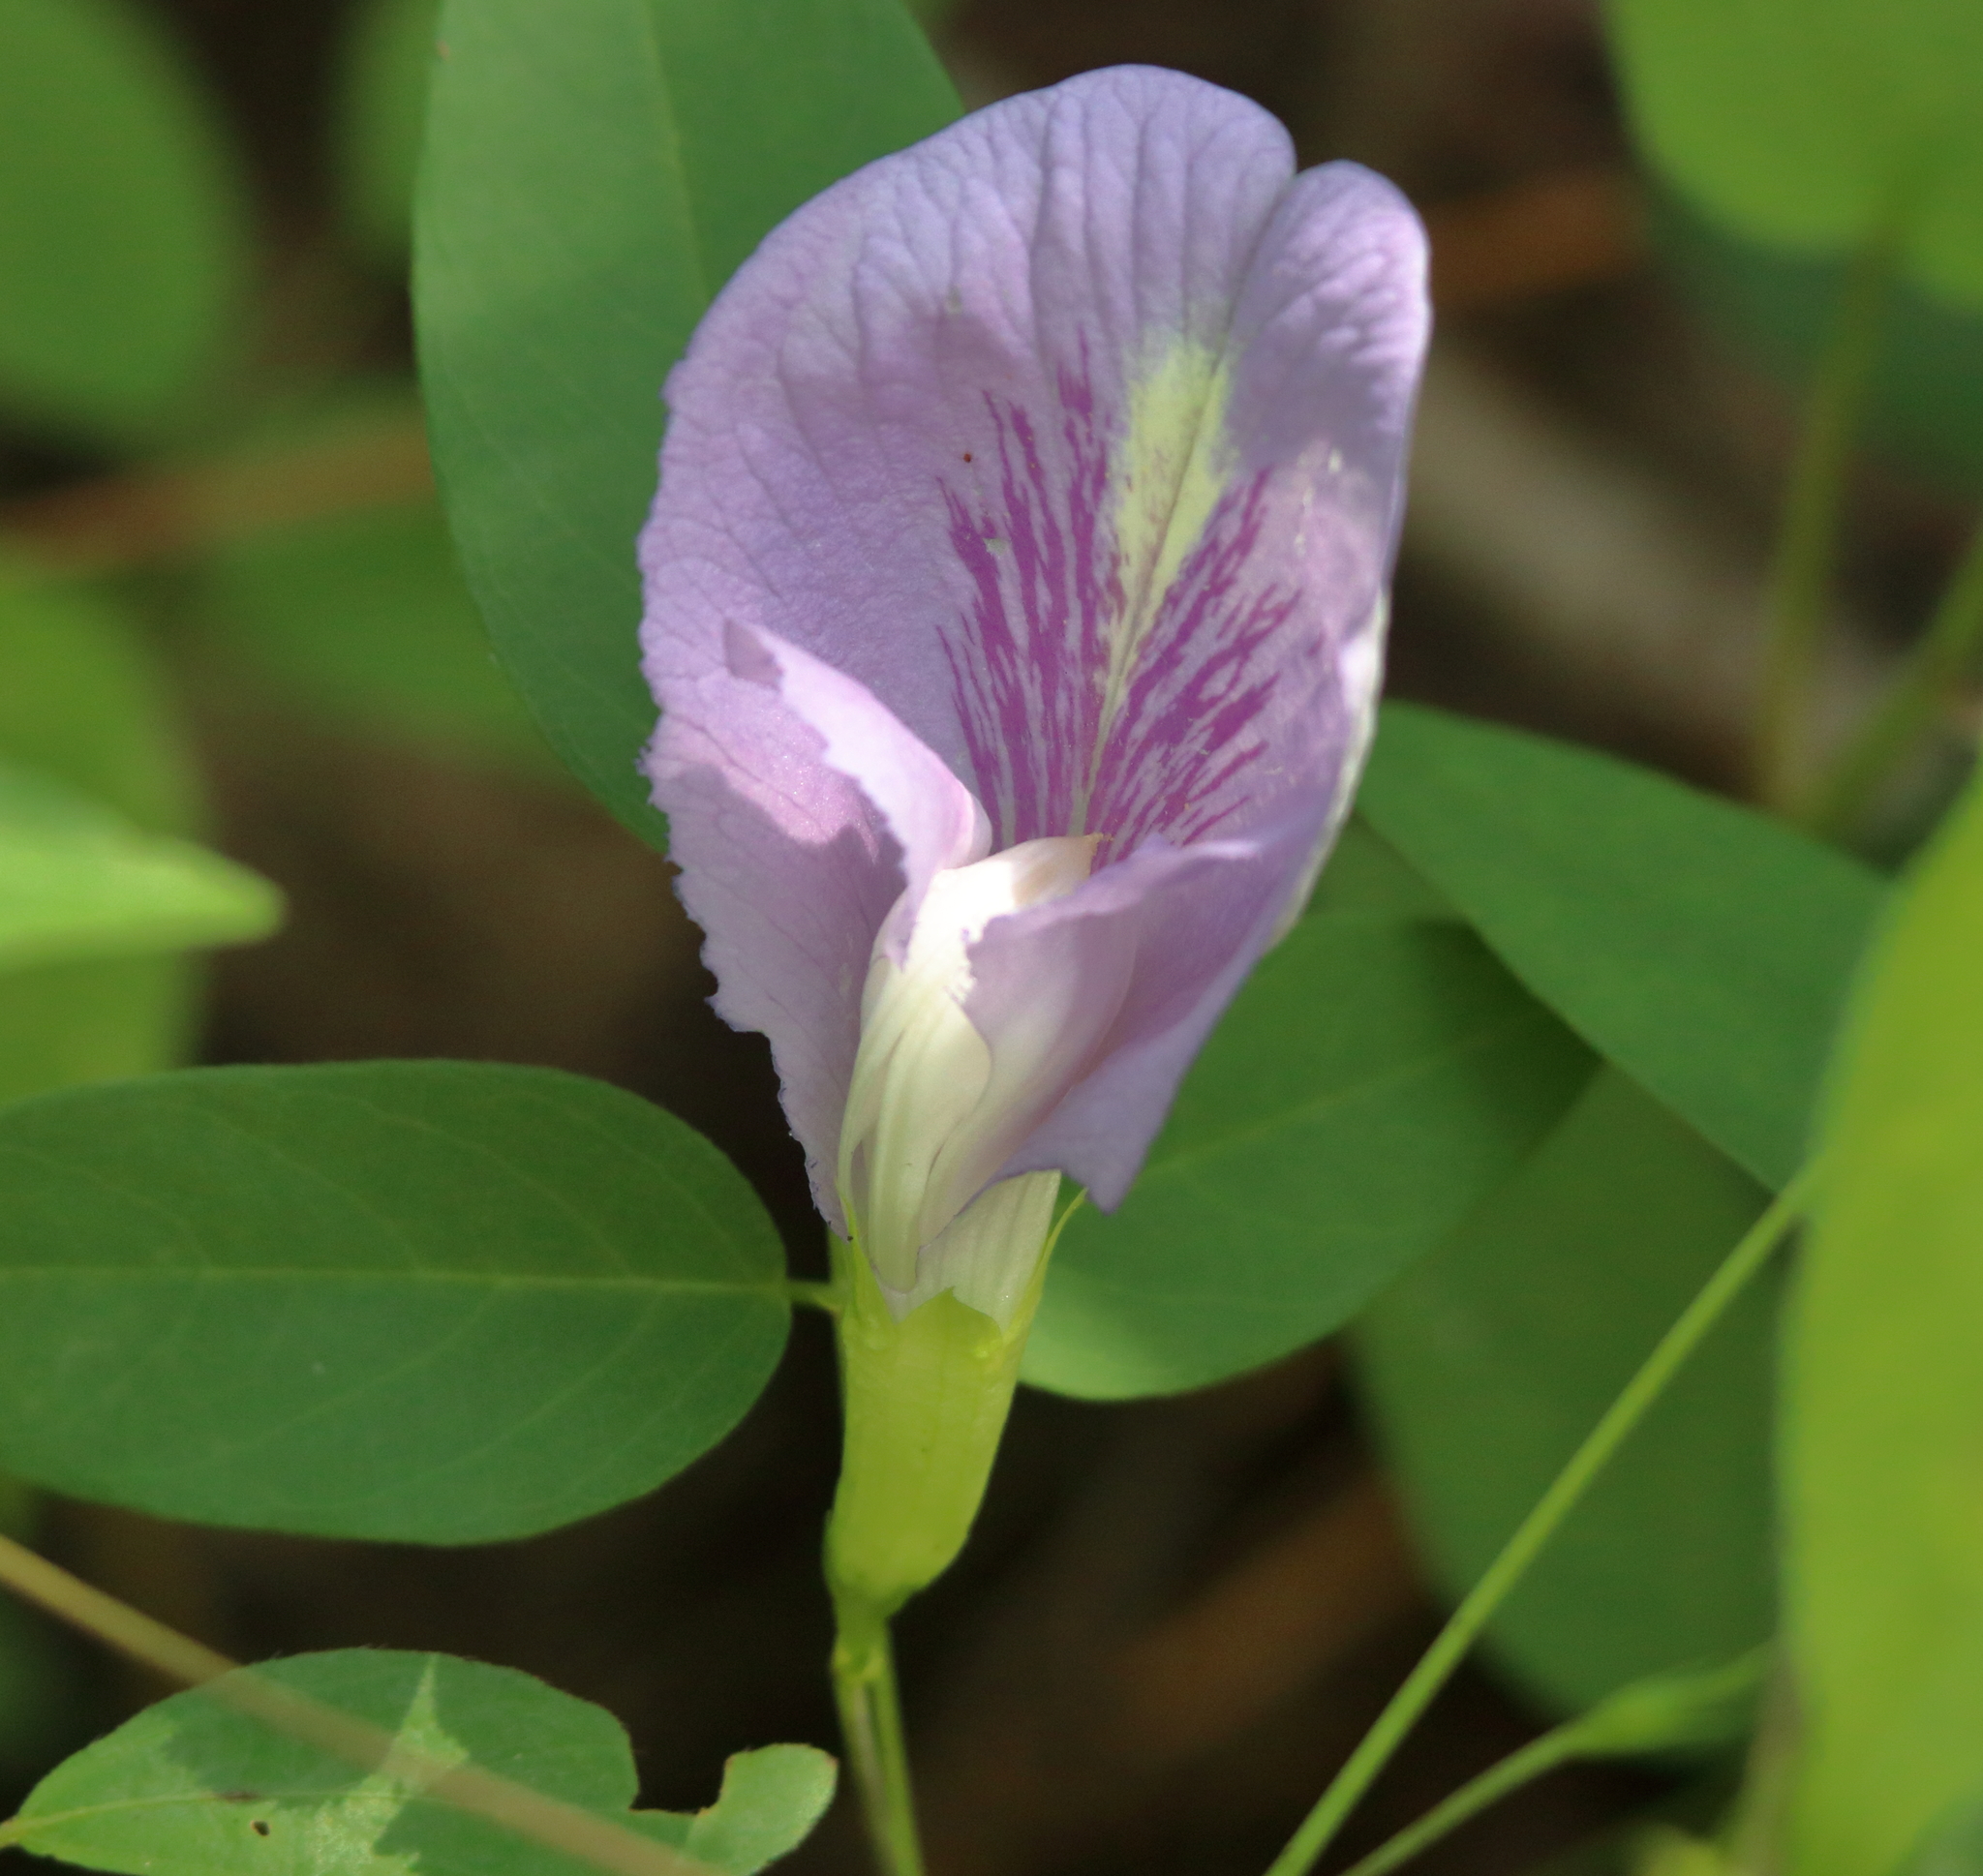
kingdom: Plantae
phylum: Tracheophyta
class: Magnoliopsida
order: Fabales
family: Fabaceae
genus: Clitoria
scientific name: Clitoria mariana
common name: Butterfly-pea
